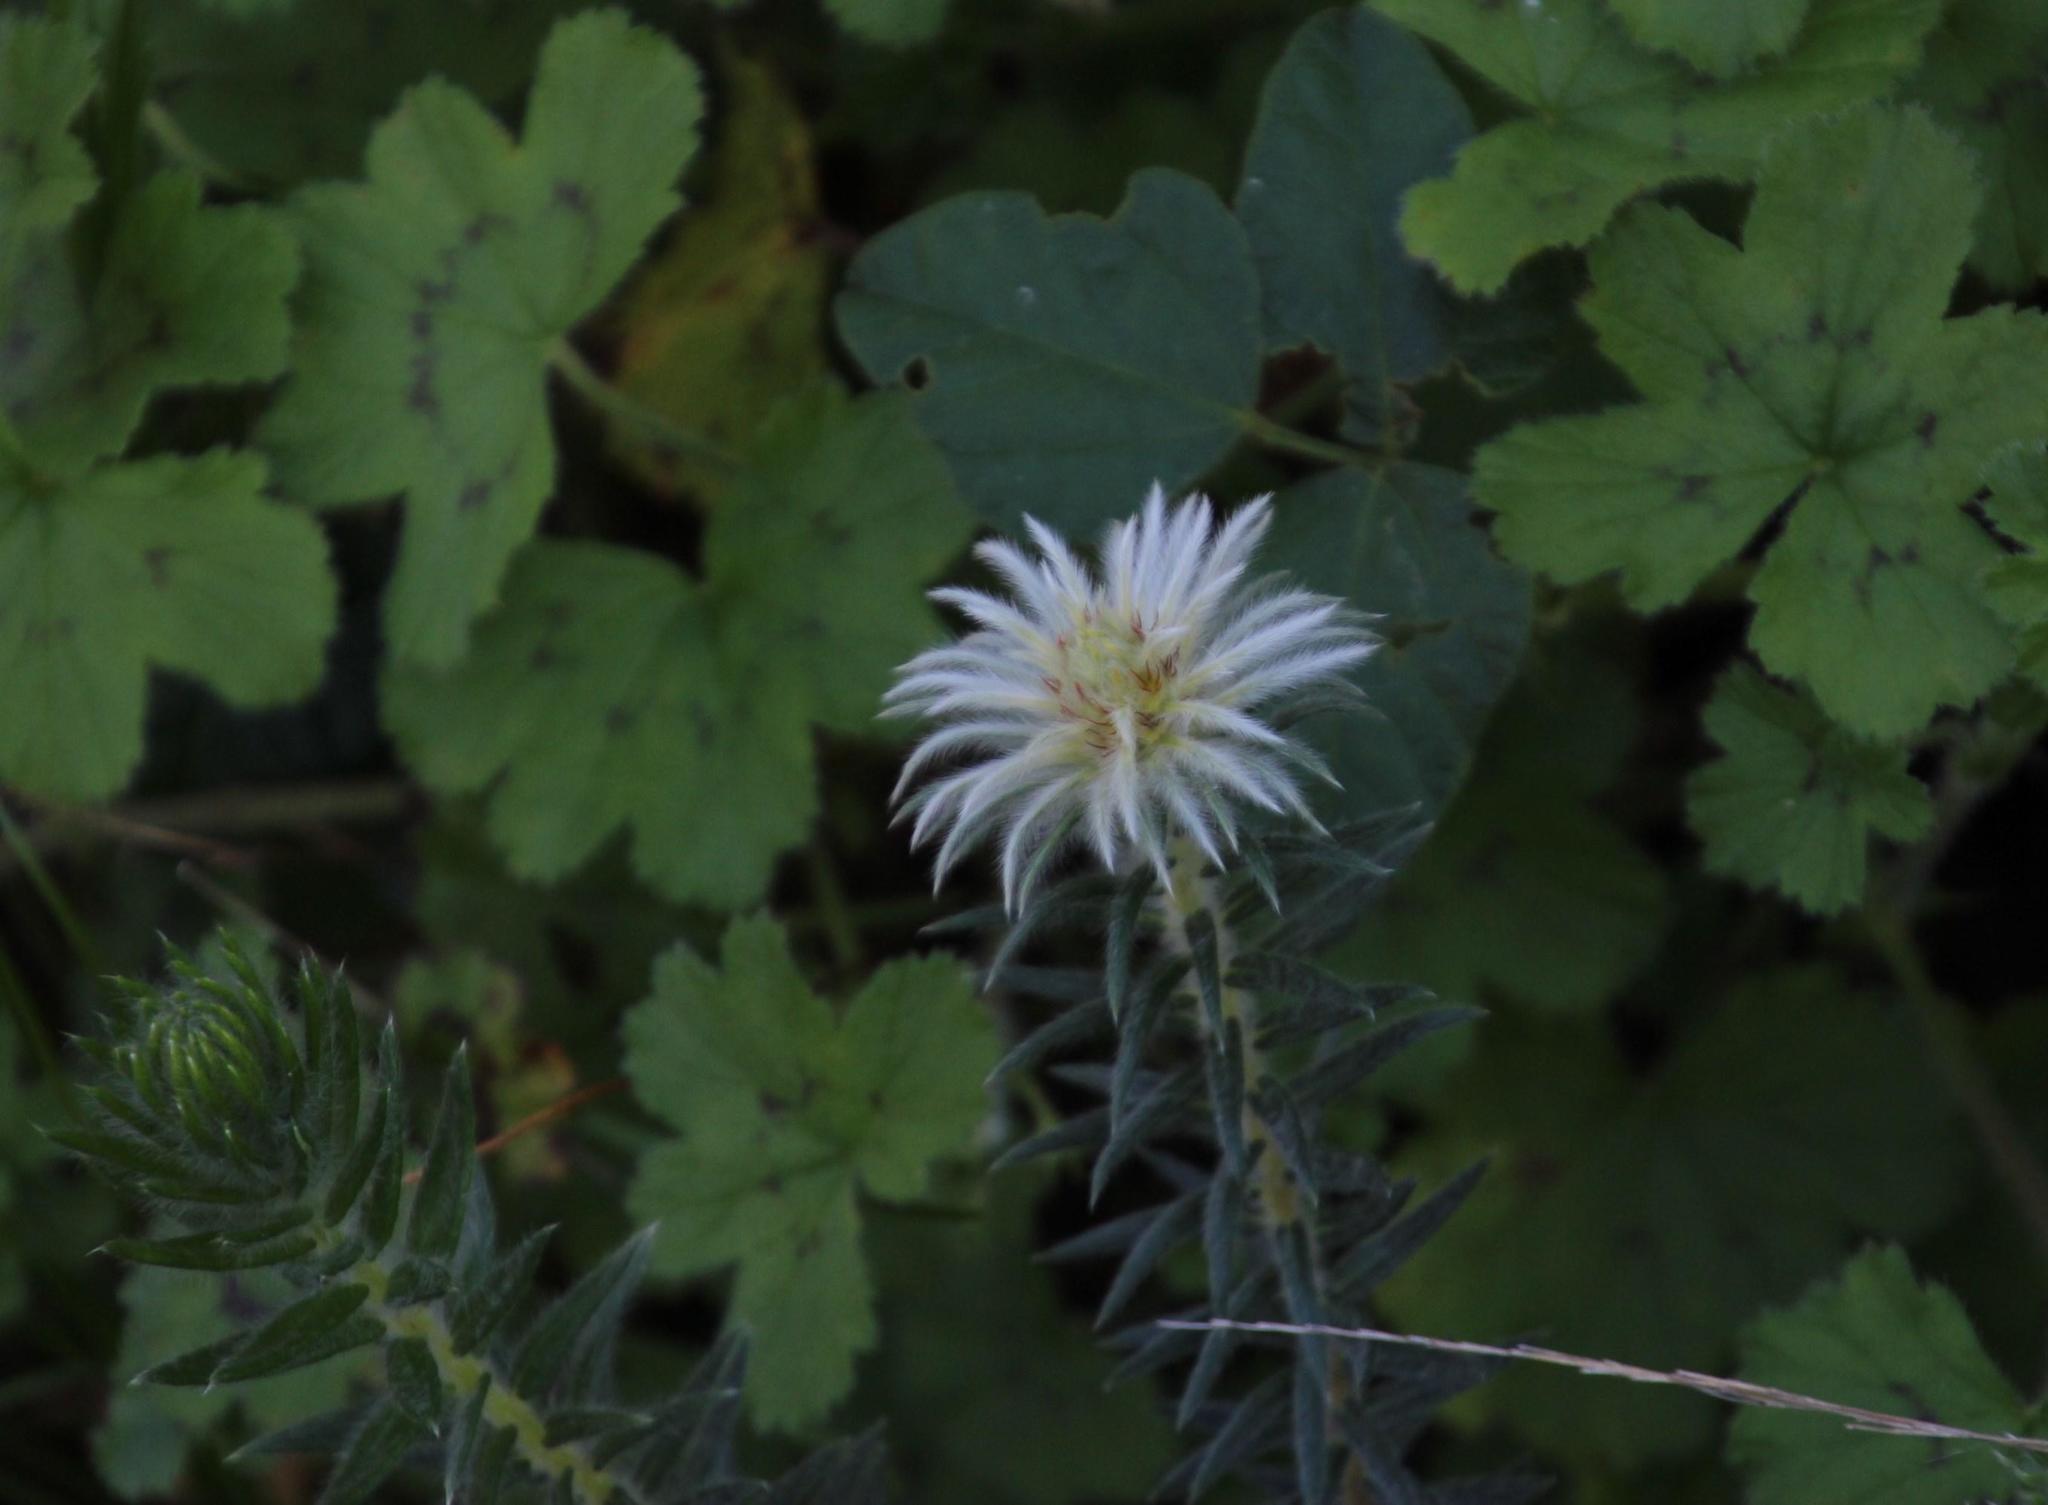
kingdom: Plantae
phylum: Tracheophyta
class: Magnoliopsida
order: Rosales
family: Rhamnaceae
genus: Phylica
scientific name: Phylica pubescens
